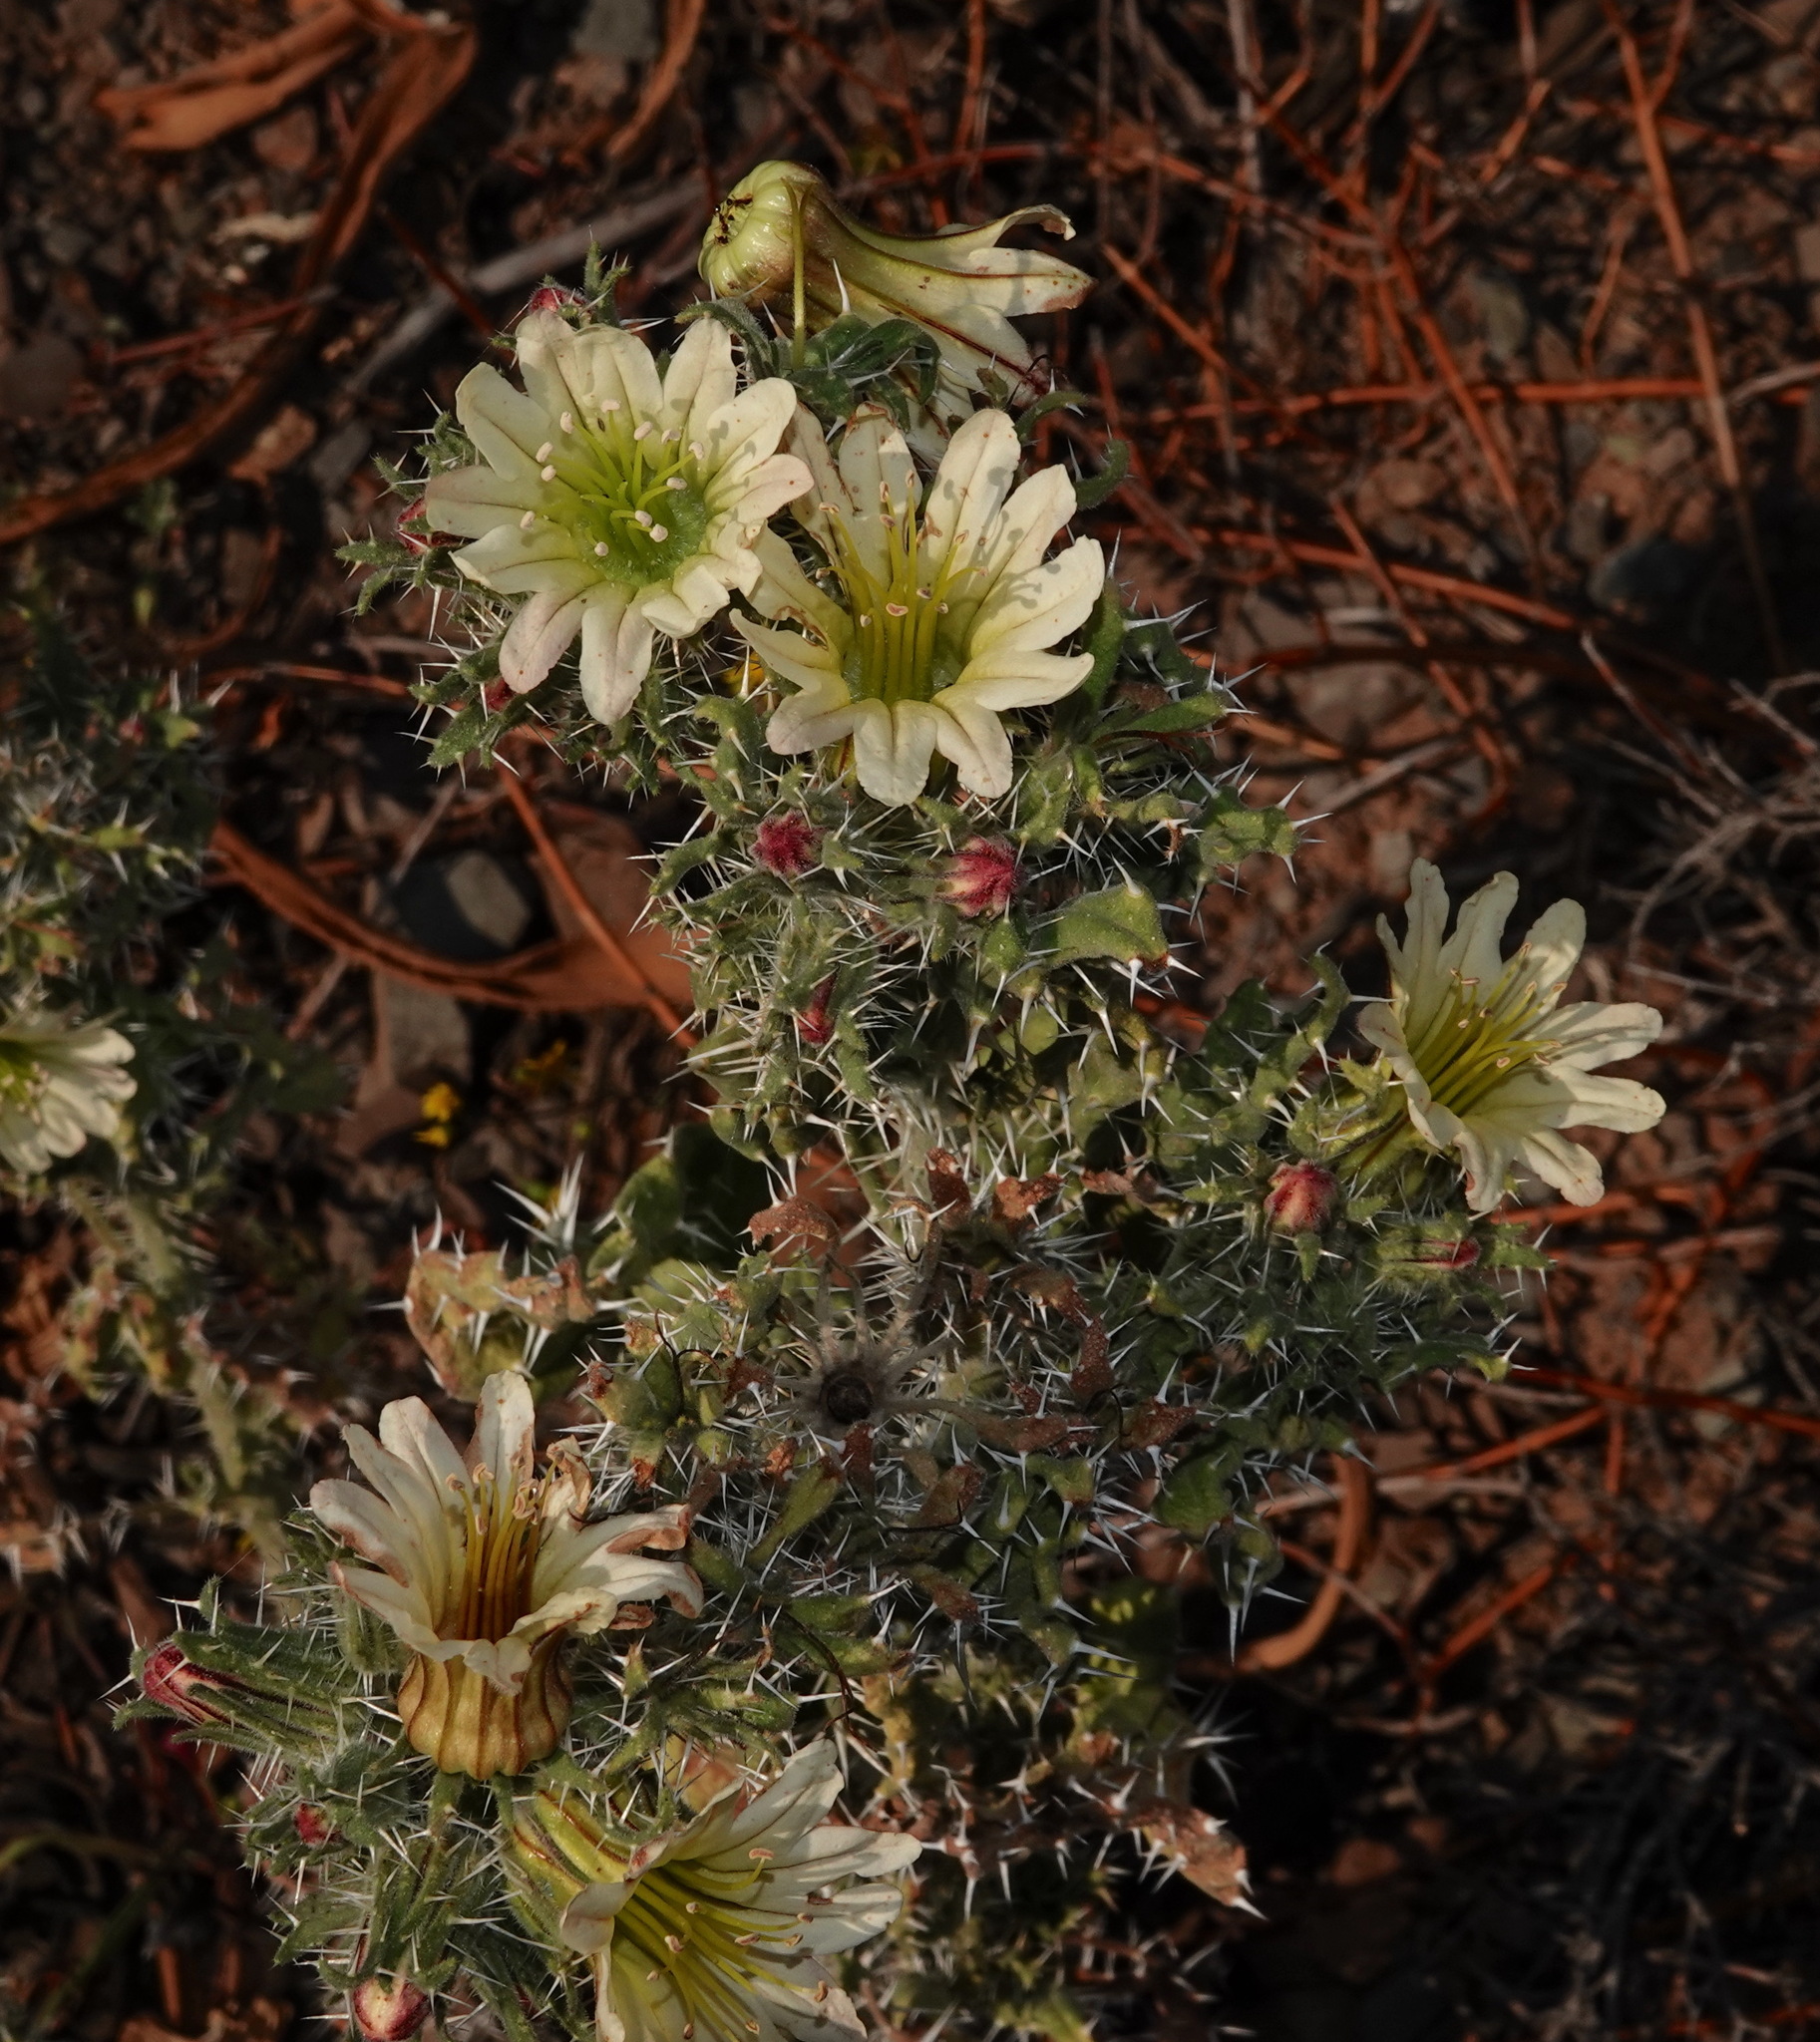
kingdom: Plantae
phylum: Tracheophyta
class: Magnoliopsida
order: Boraginales
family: Boraginaceae
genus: Codon
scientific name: Codon royenii
